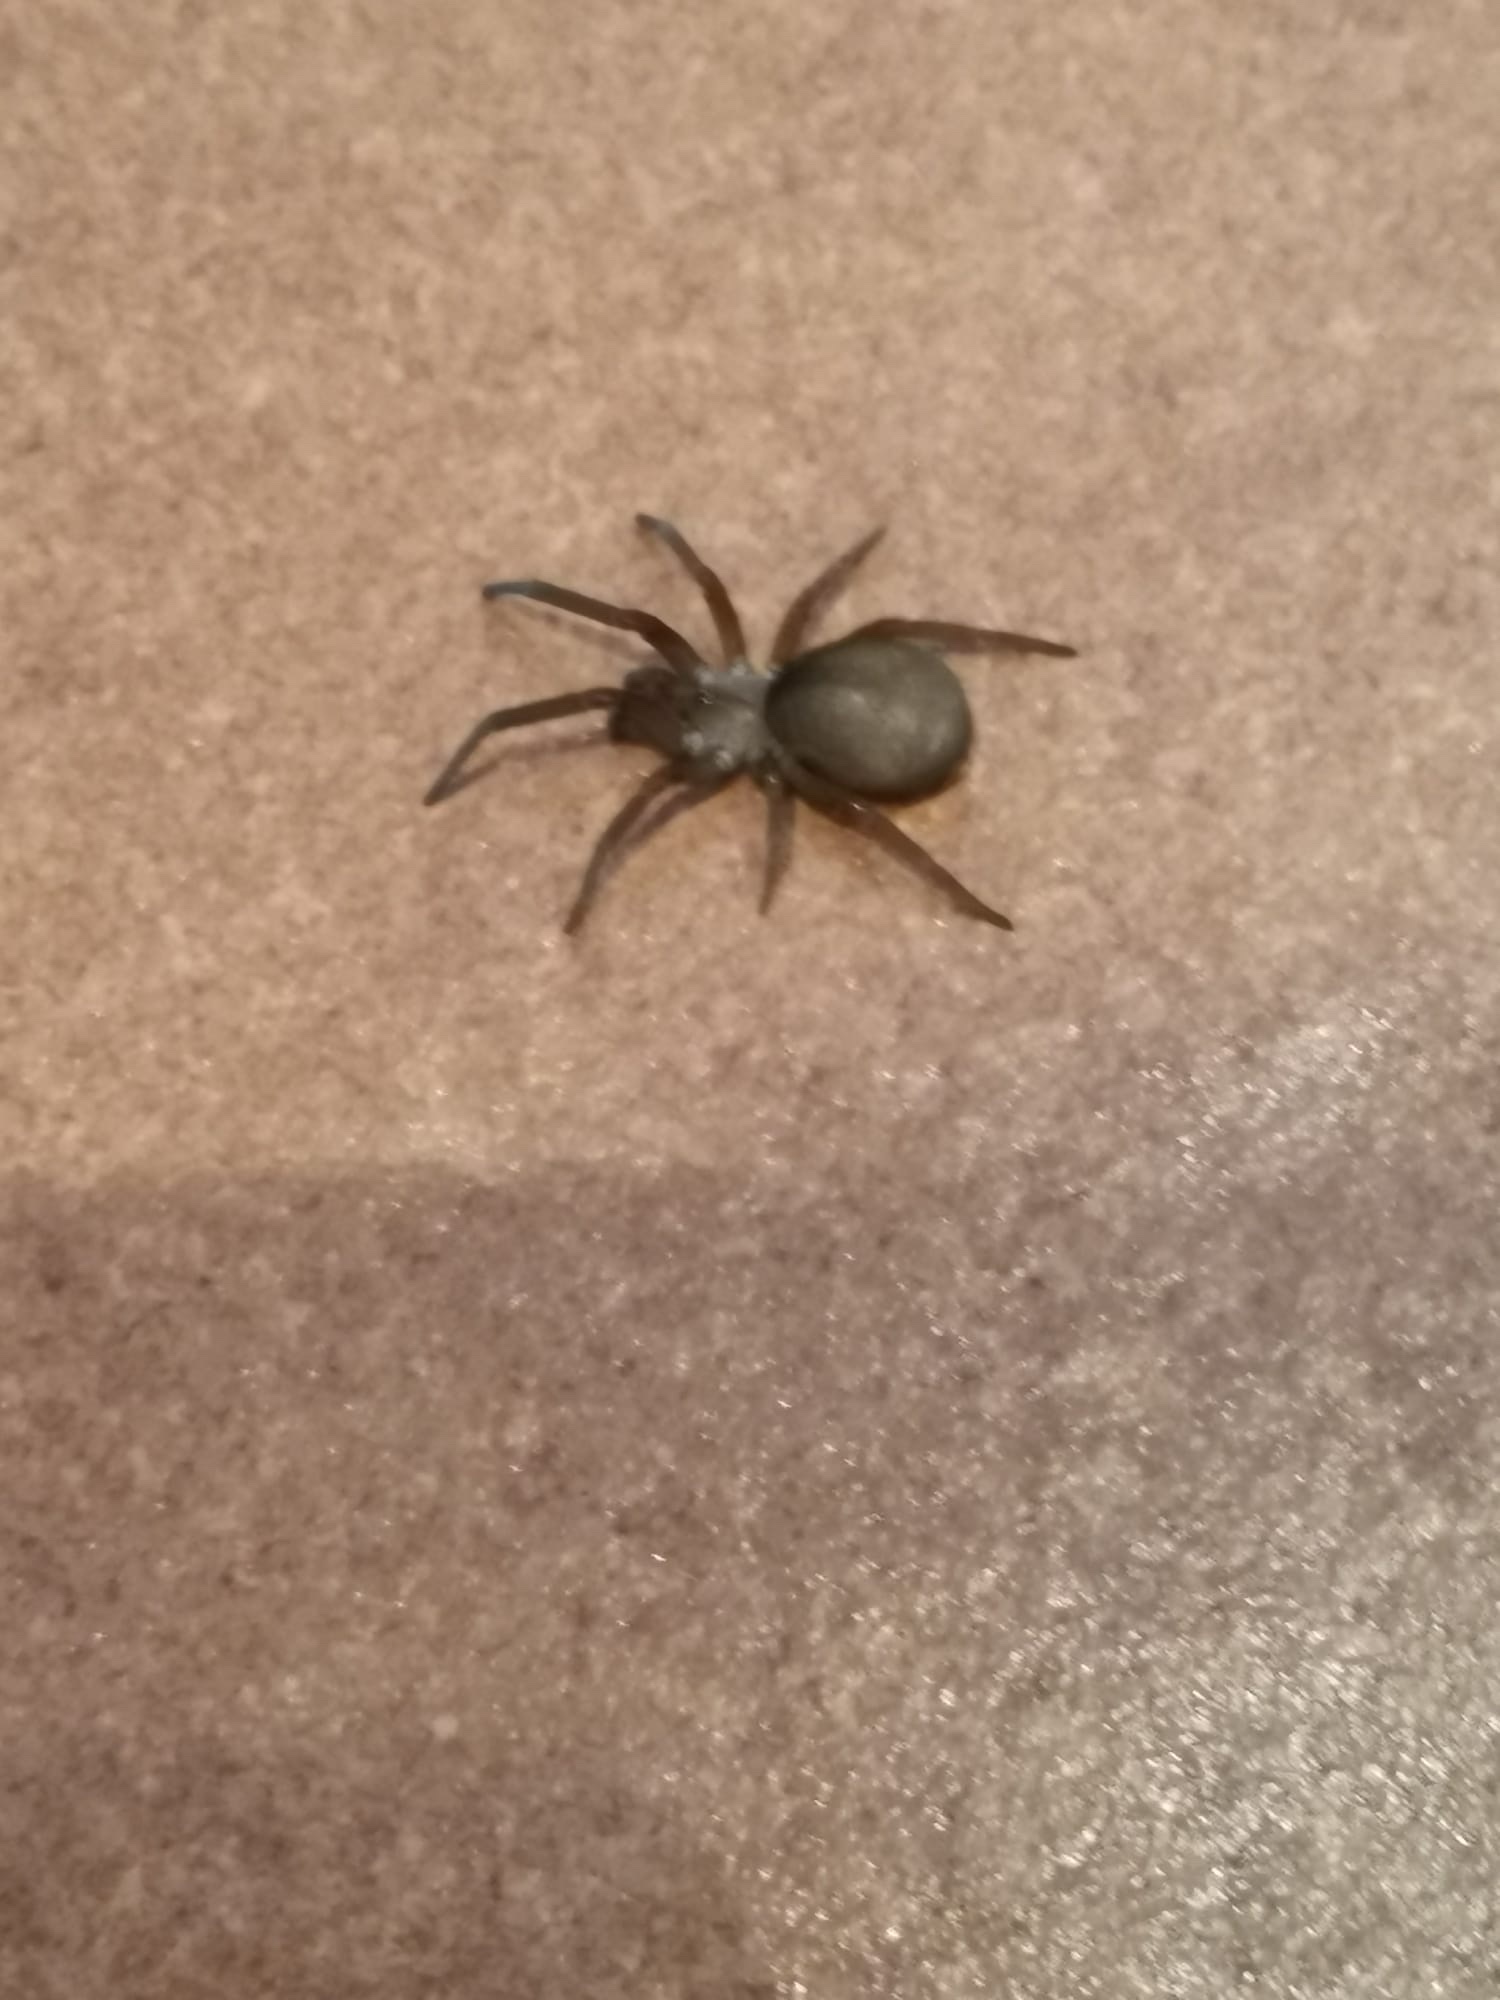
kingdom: Animalia
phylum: Arthropoda
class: Arachnida
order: Araneae
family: Filistatidae
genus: Filistata
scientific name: Filistata insidiatrix
